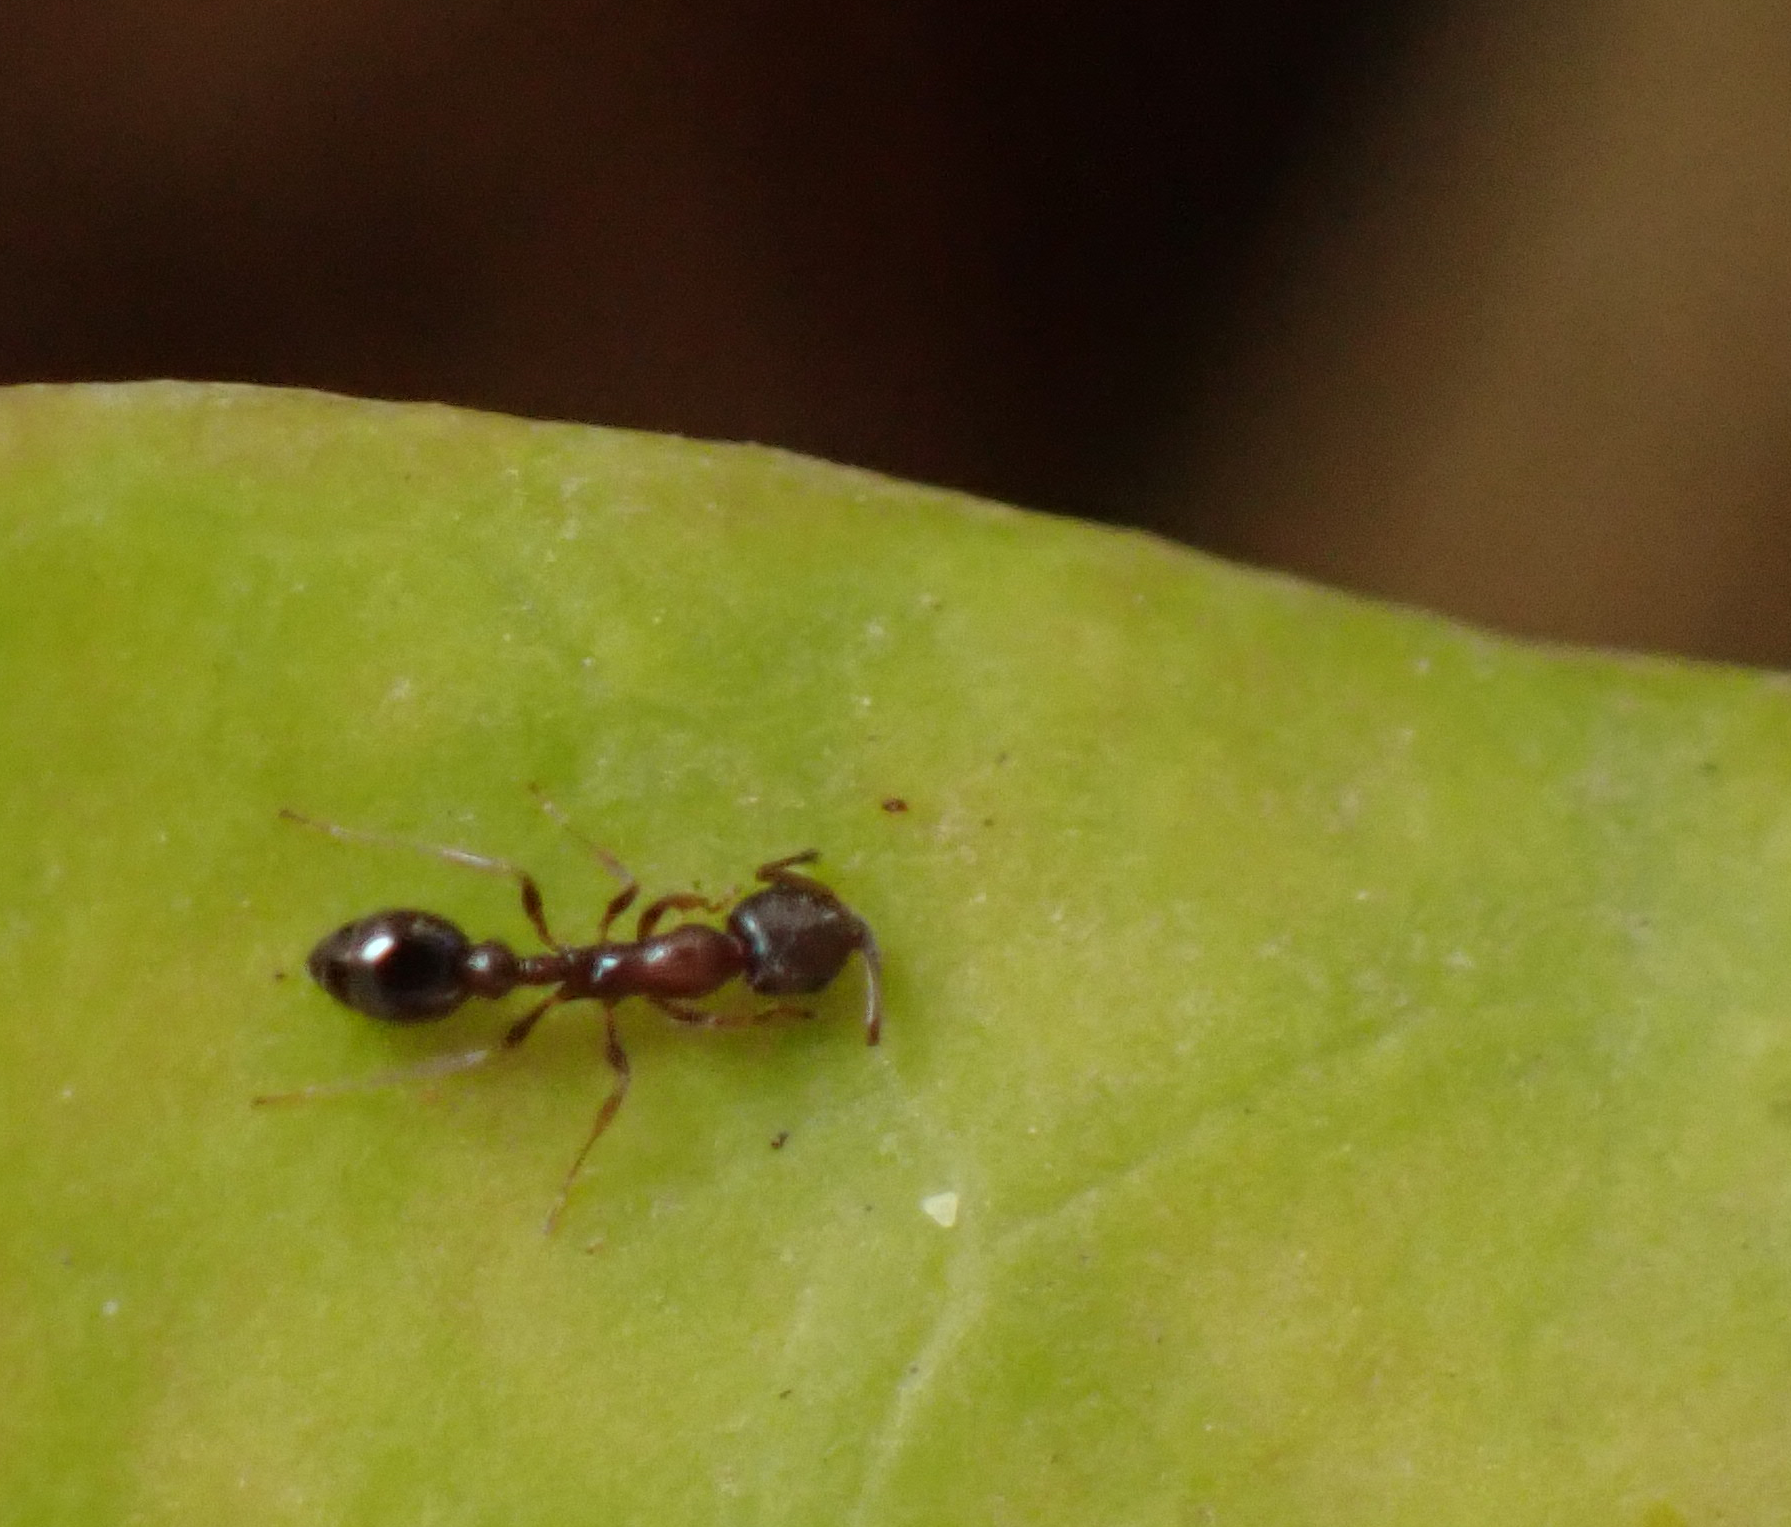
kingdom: Animalia
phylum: Arthropoda
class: Insecta
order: Hymenoptera
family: Formicidae
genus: Cardiocondyla
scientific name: Cardiocondyla mauritanica
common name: Sneaking ant
